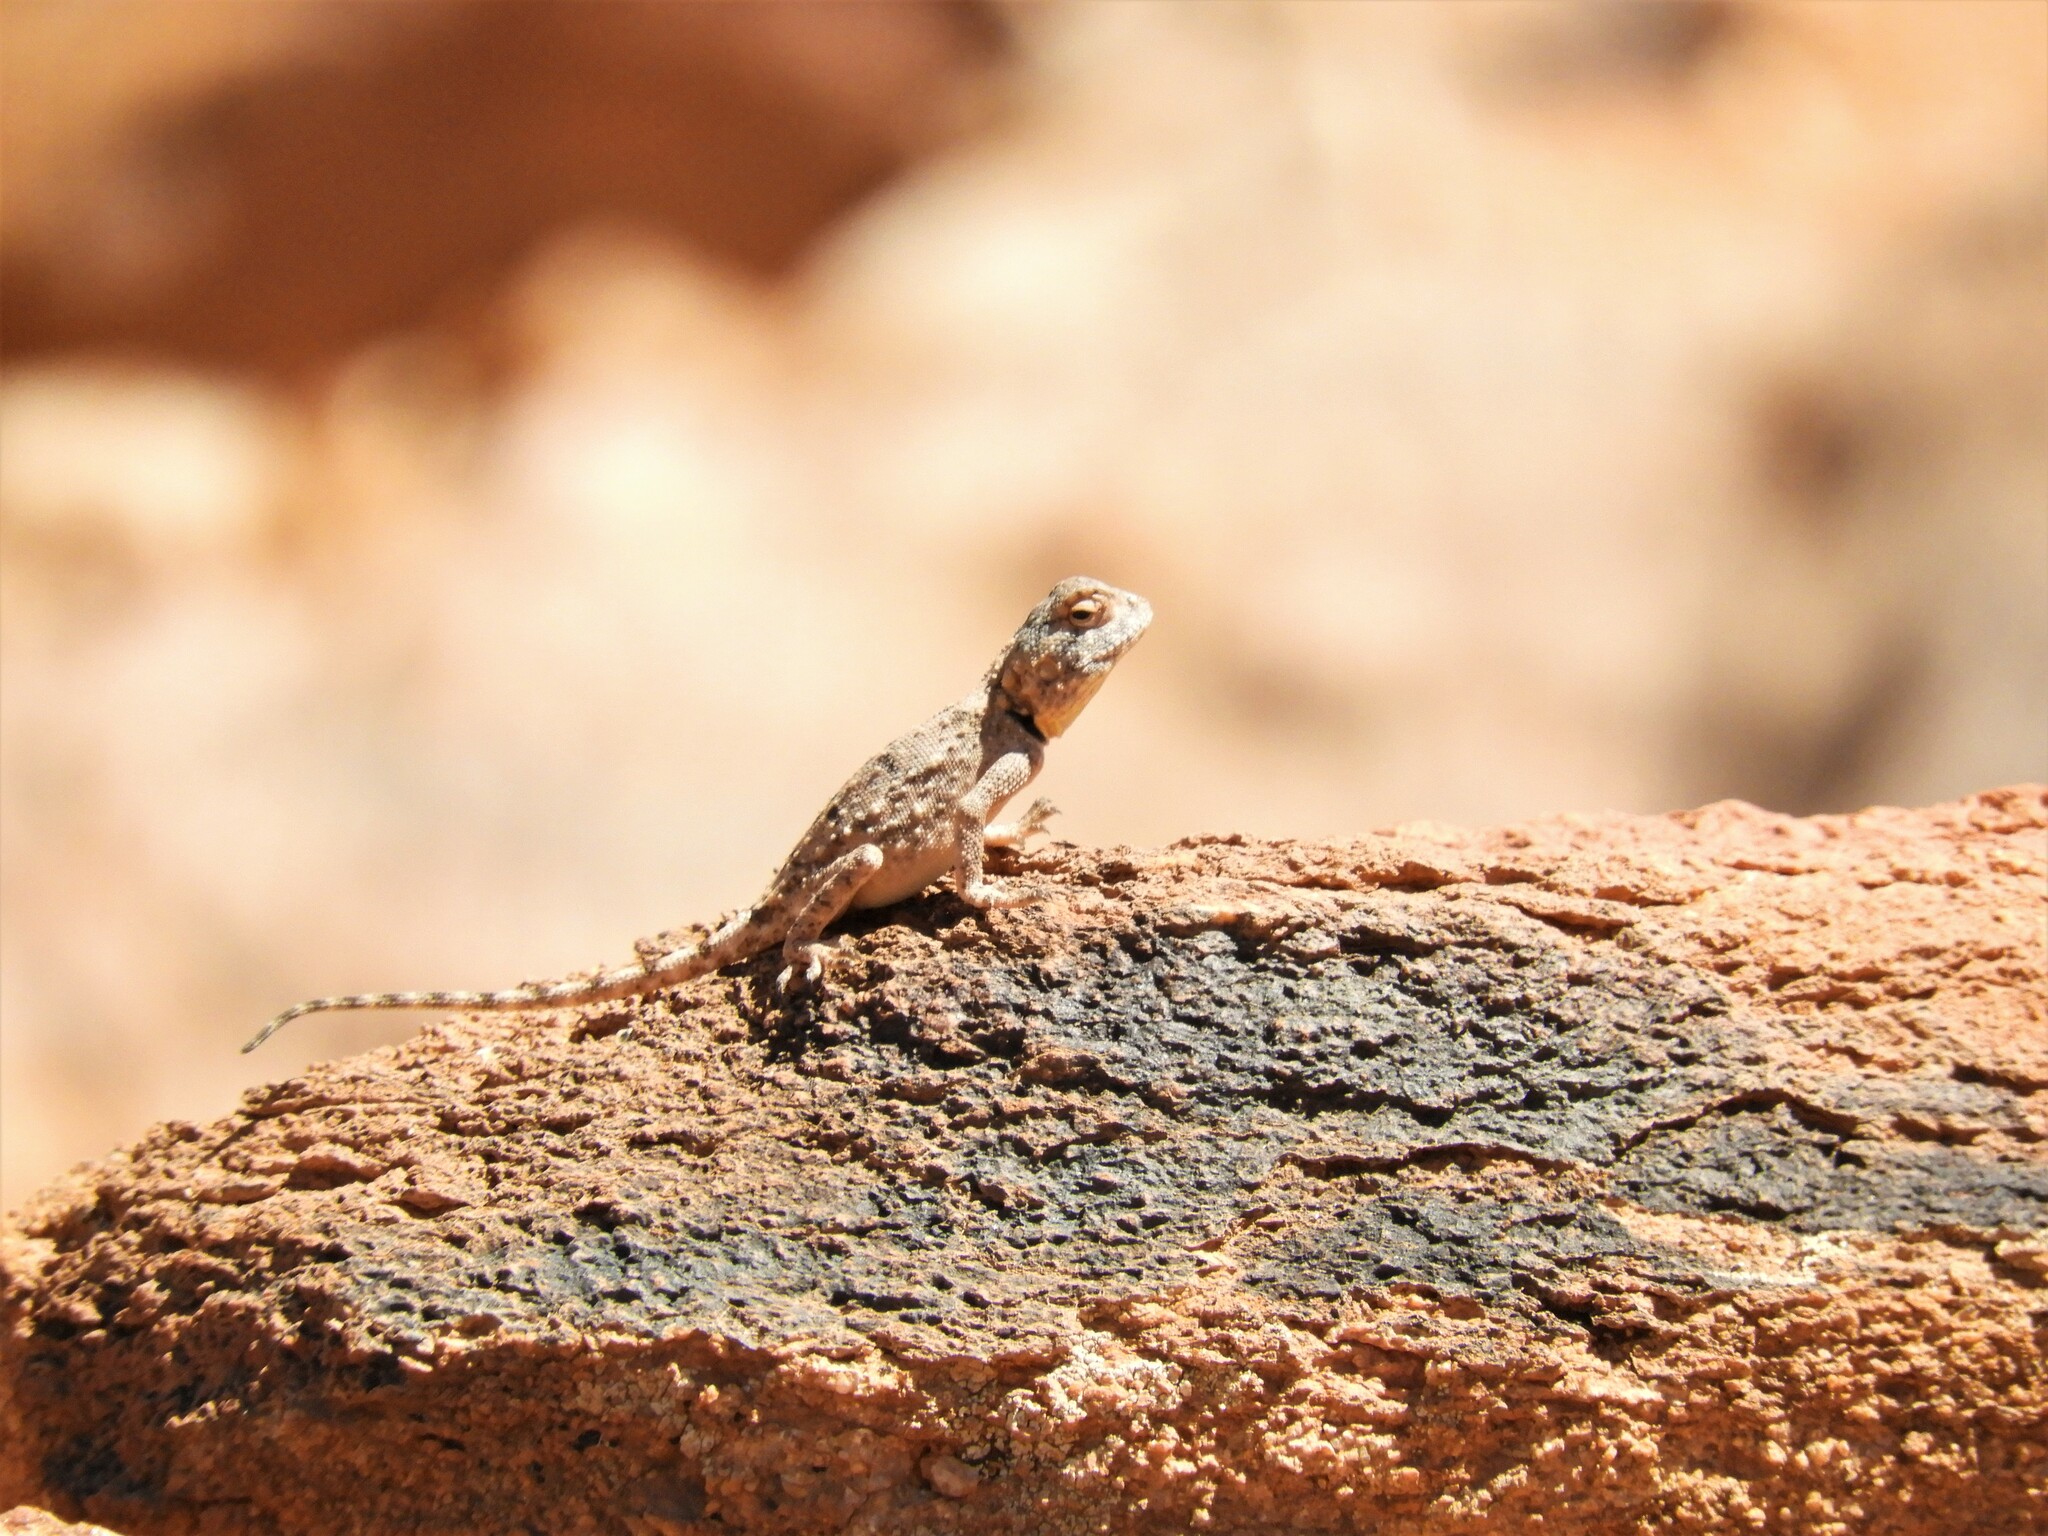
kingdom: Animalia
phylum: Chordata
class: Squamata
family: Agamidae
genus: Agama
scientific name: Agama anchietae
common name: Anchieta's agama
